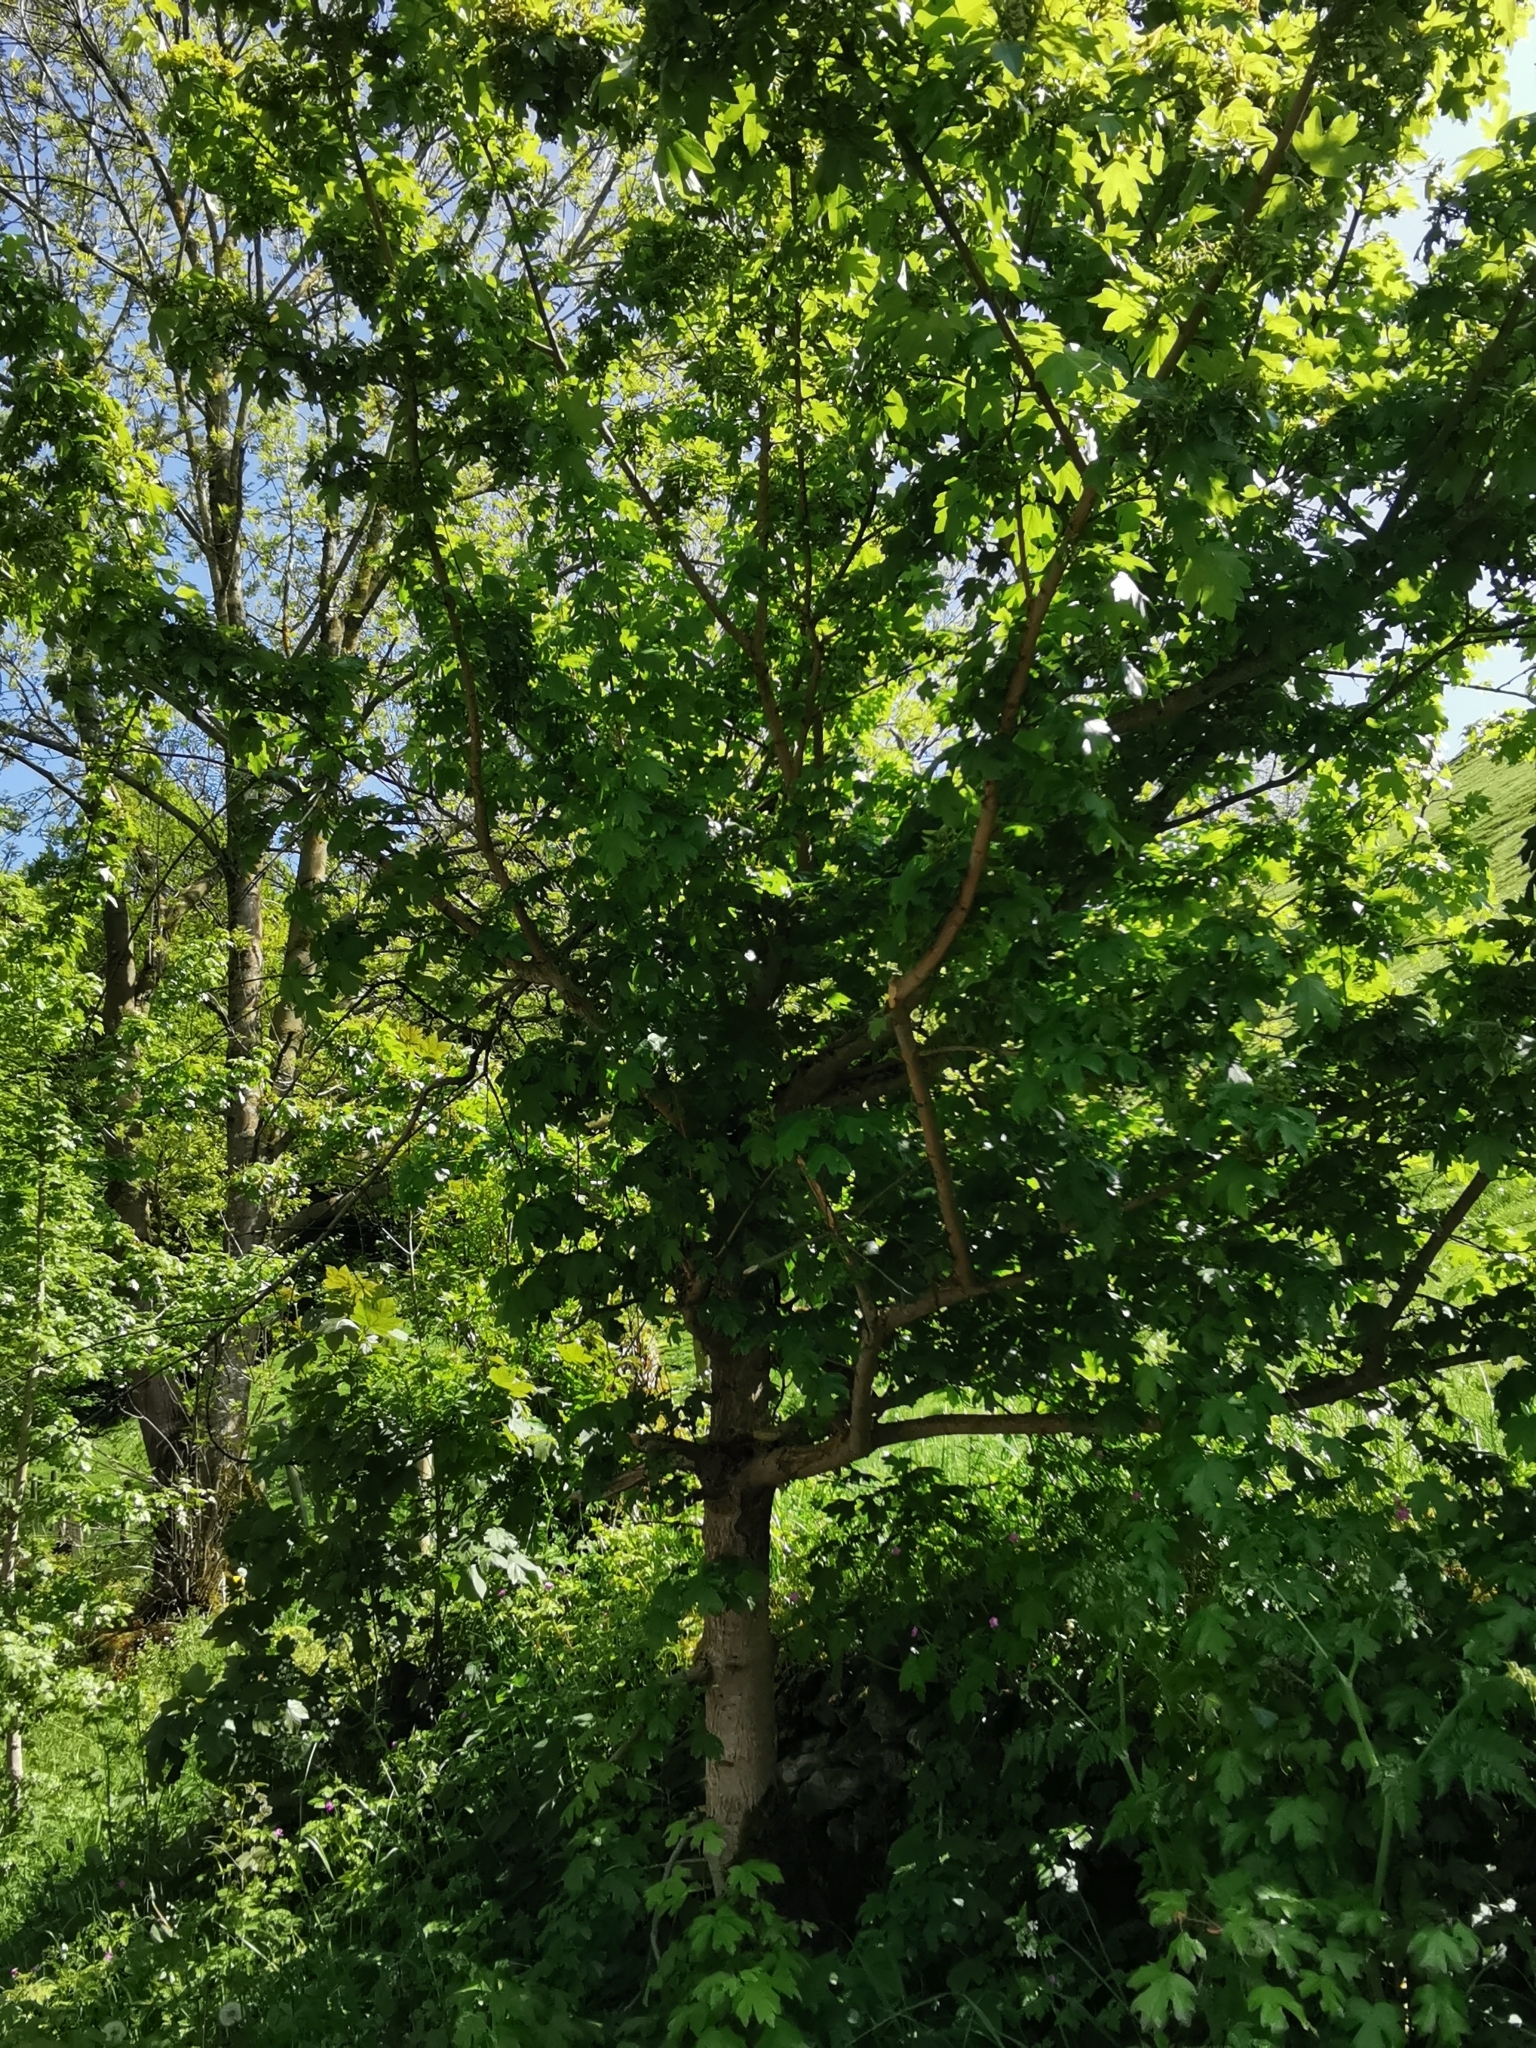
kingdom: Plantae
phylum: Tracheophyta
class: Magnoliopsida
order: Sapindales
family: Sapindaceae
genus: Acer
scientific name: Acer campestre
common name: Field maple
